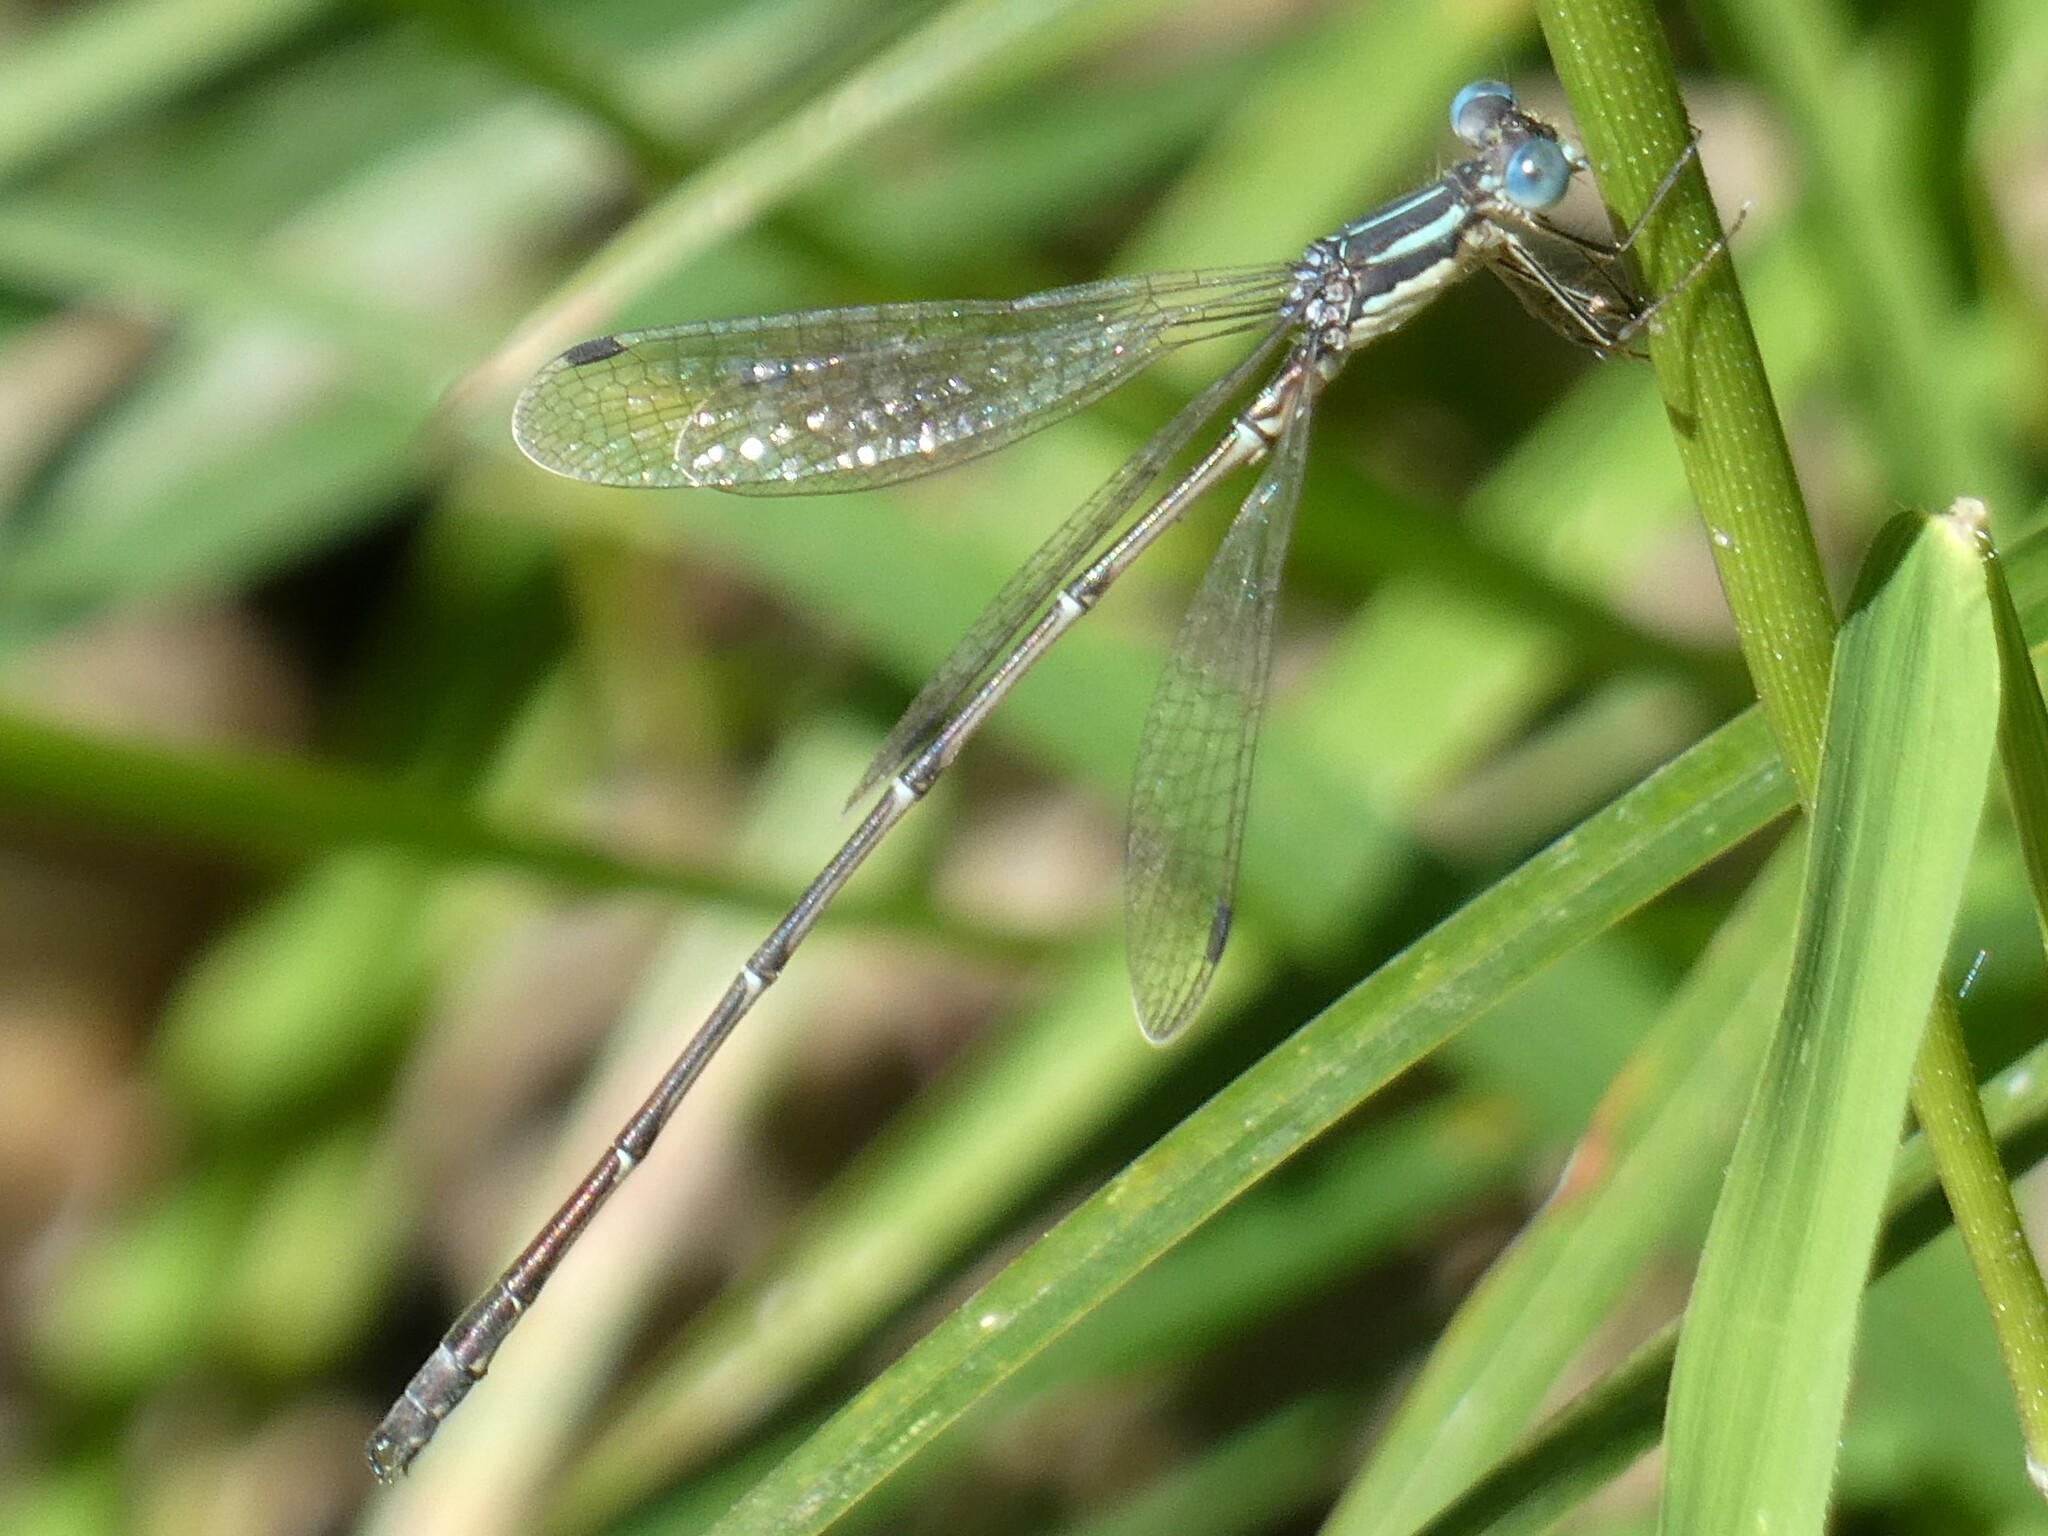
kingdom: Animalia
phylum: Arthropoda
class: Insecta
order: Odonata
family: Lestidae
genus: Lestes
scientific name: Lestes rectangularis
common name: Slender spreadwing
